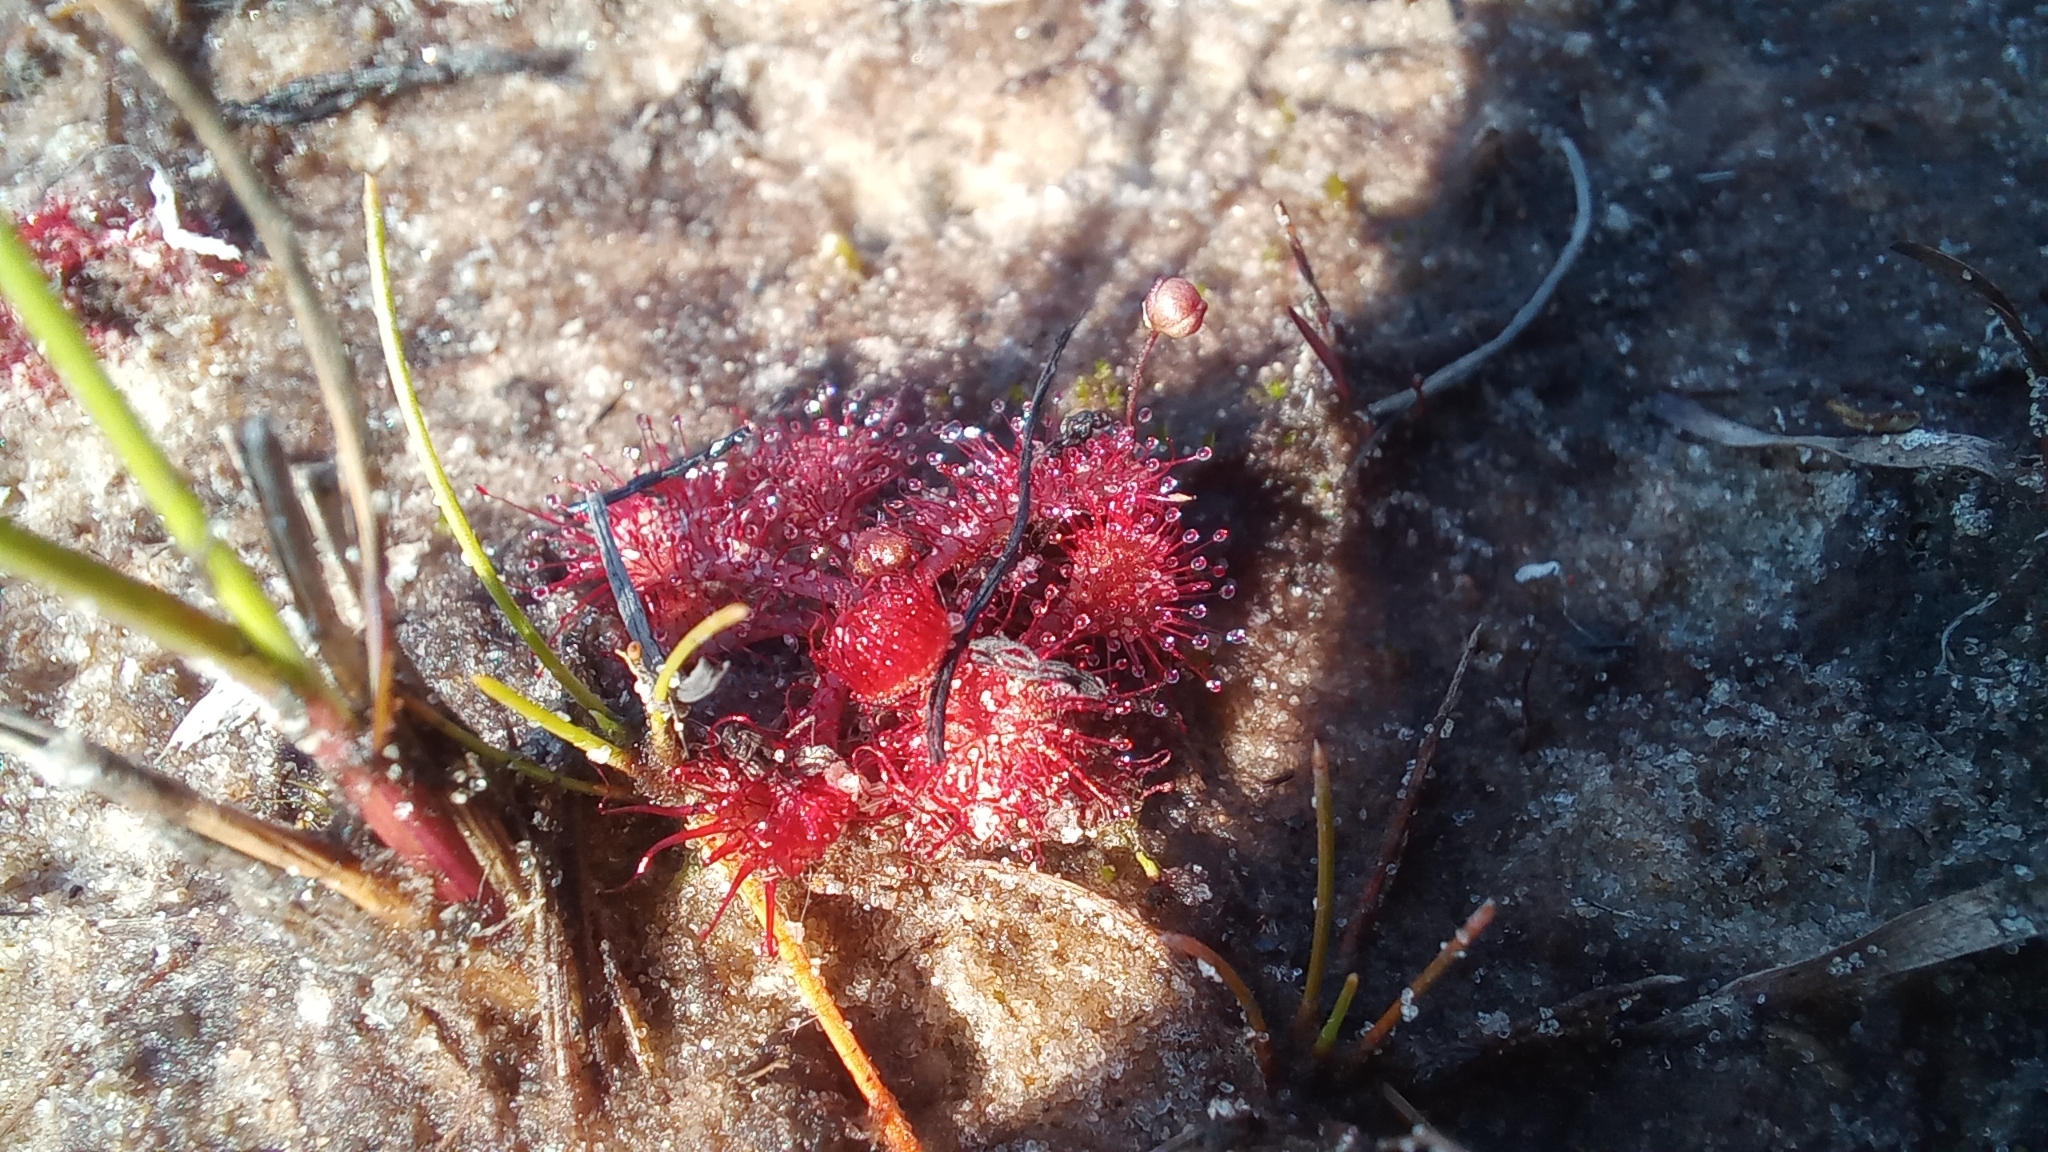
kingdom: Plantae
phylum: Tracheophyta
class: Magnoliopsida
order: Caryophyllales
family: Droseraceae
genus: Drosera
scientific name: Drosera brevifolia
